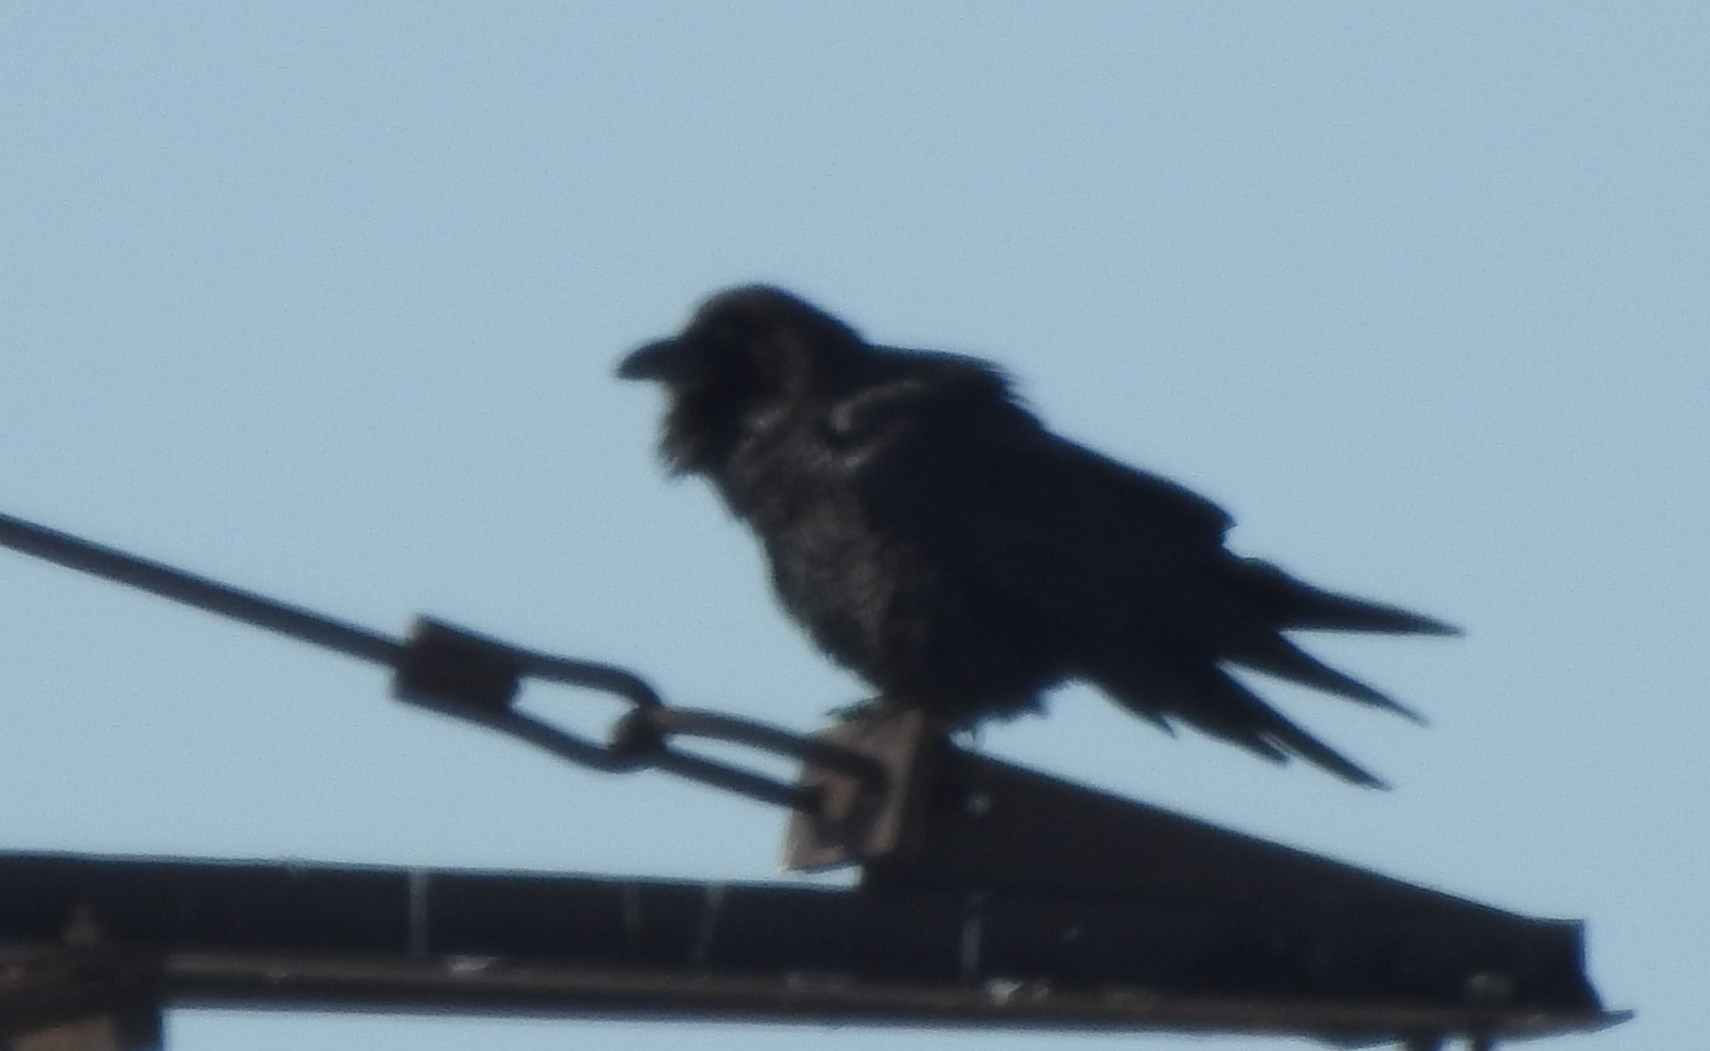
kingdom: Animalia
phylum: Chordata
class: Aves
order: Passeriformes
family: Corvidae
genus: Corvus
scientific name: Corvus corax
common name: Common raven
